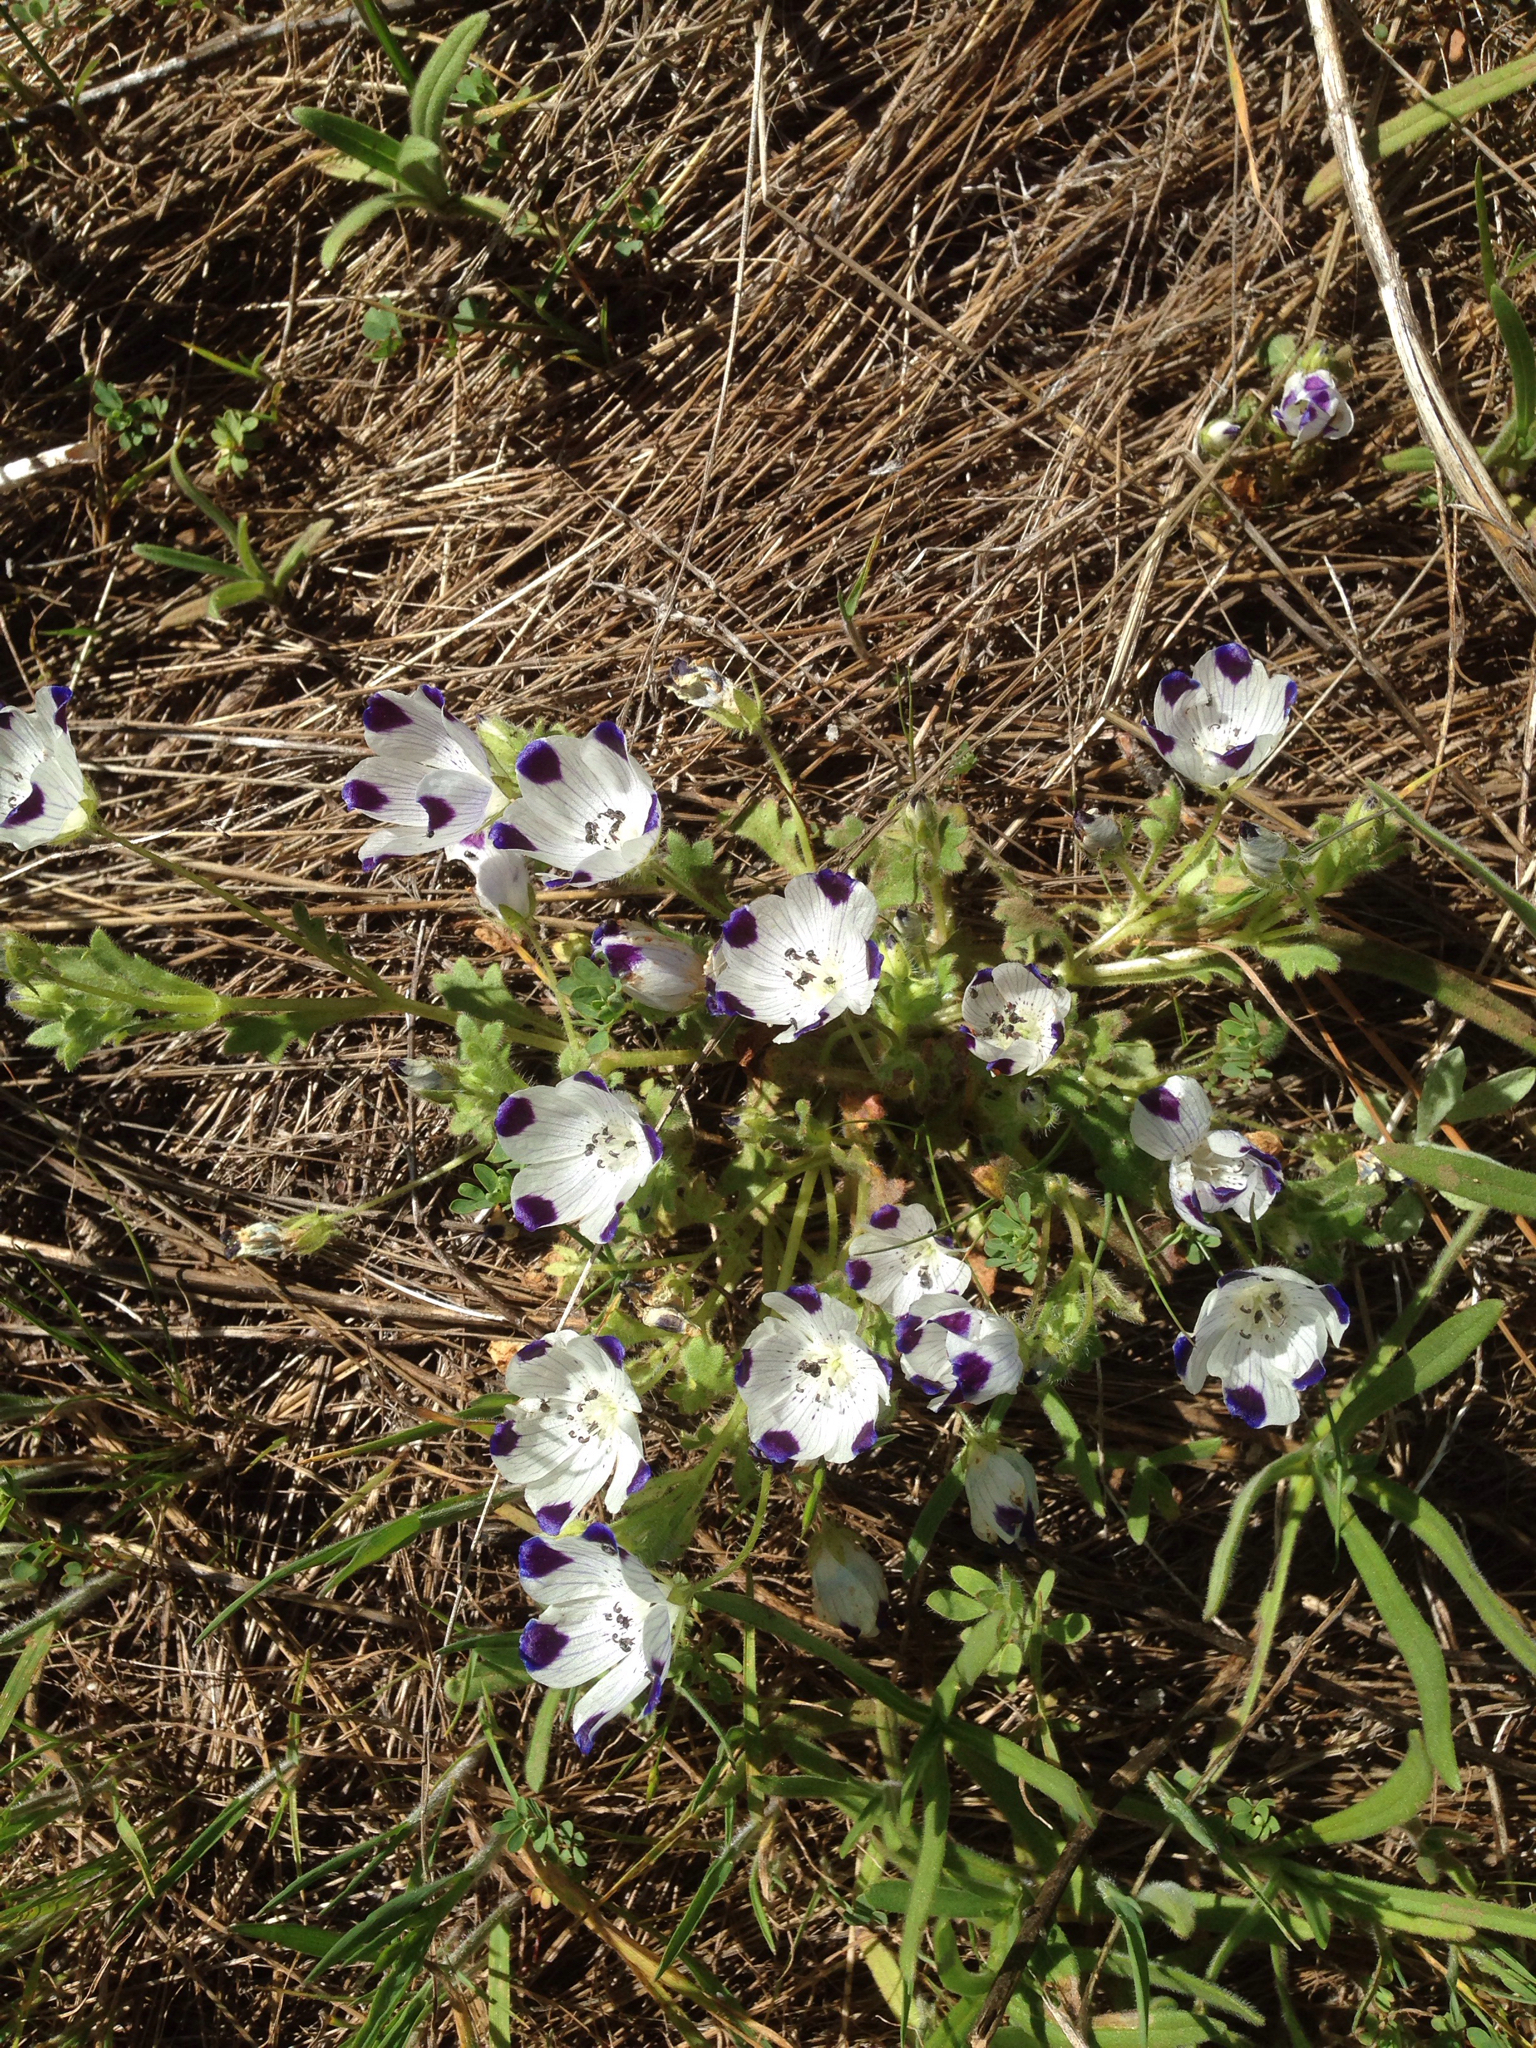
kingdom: Plantae
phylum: Tracheophyta
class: Magnoliopsida
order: Boraginales
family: Hydrophyllaceae
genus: Nemophila
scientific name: Nemophila maculata
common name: Fivespot
